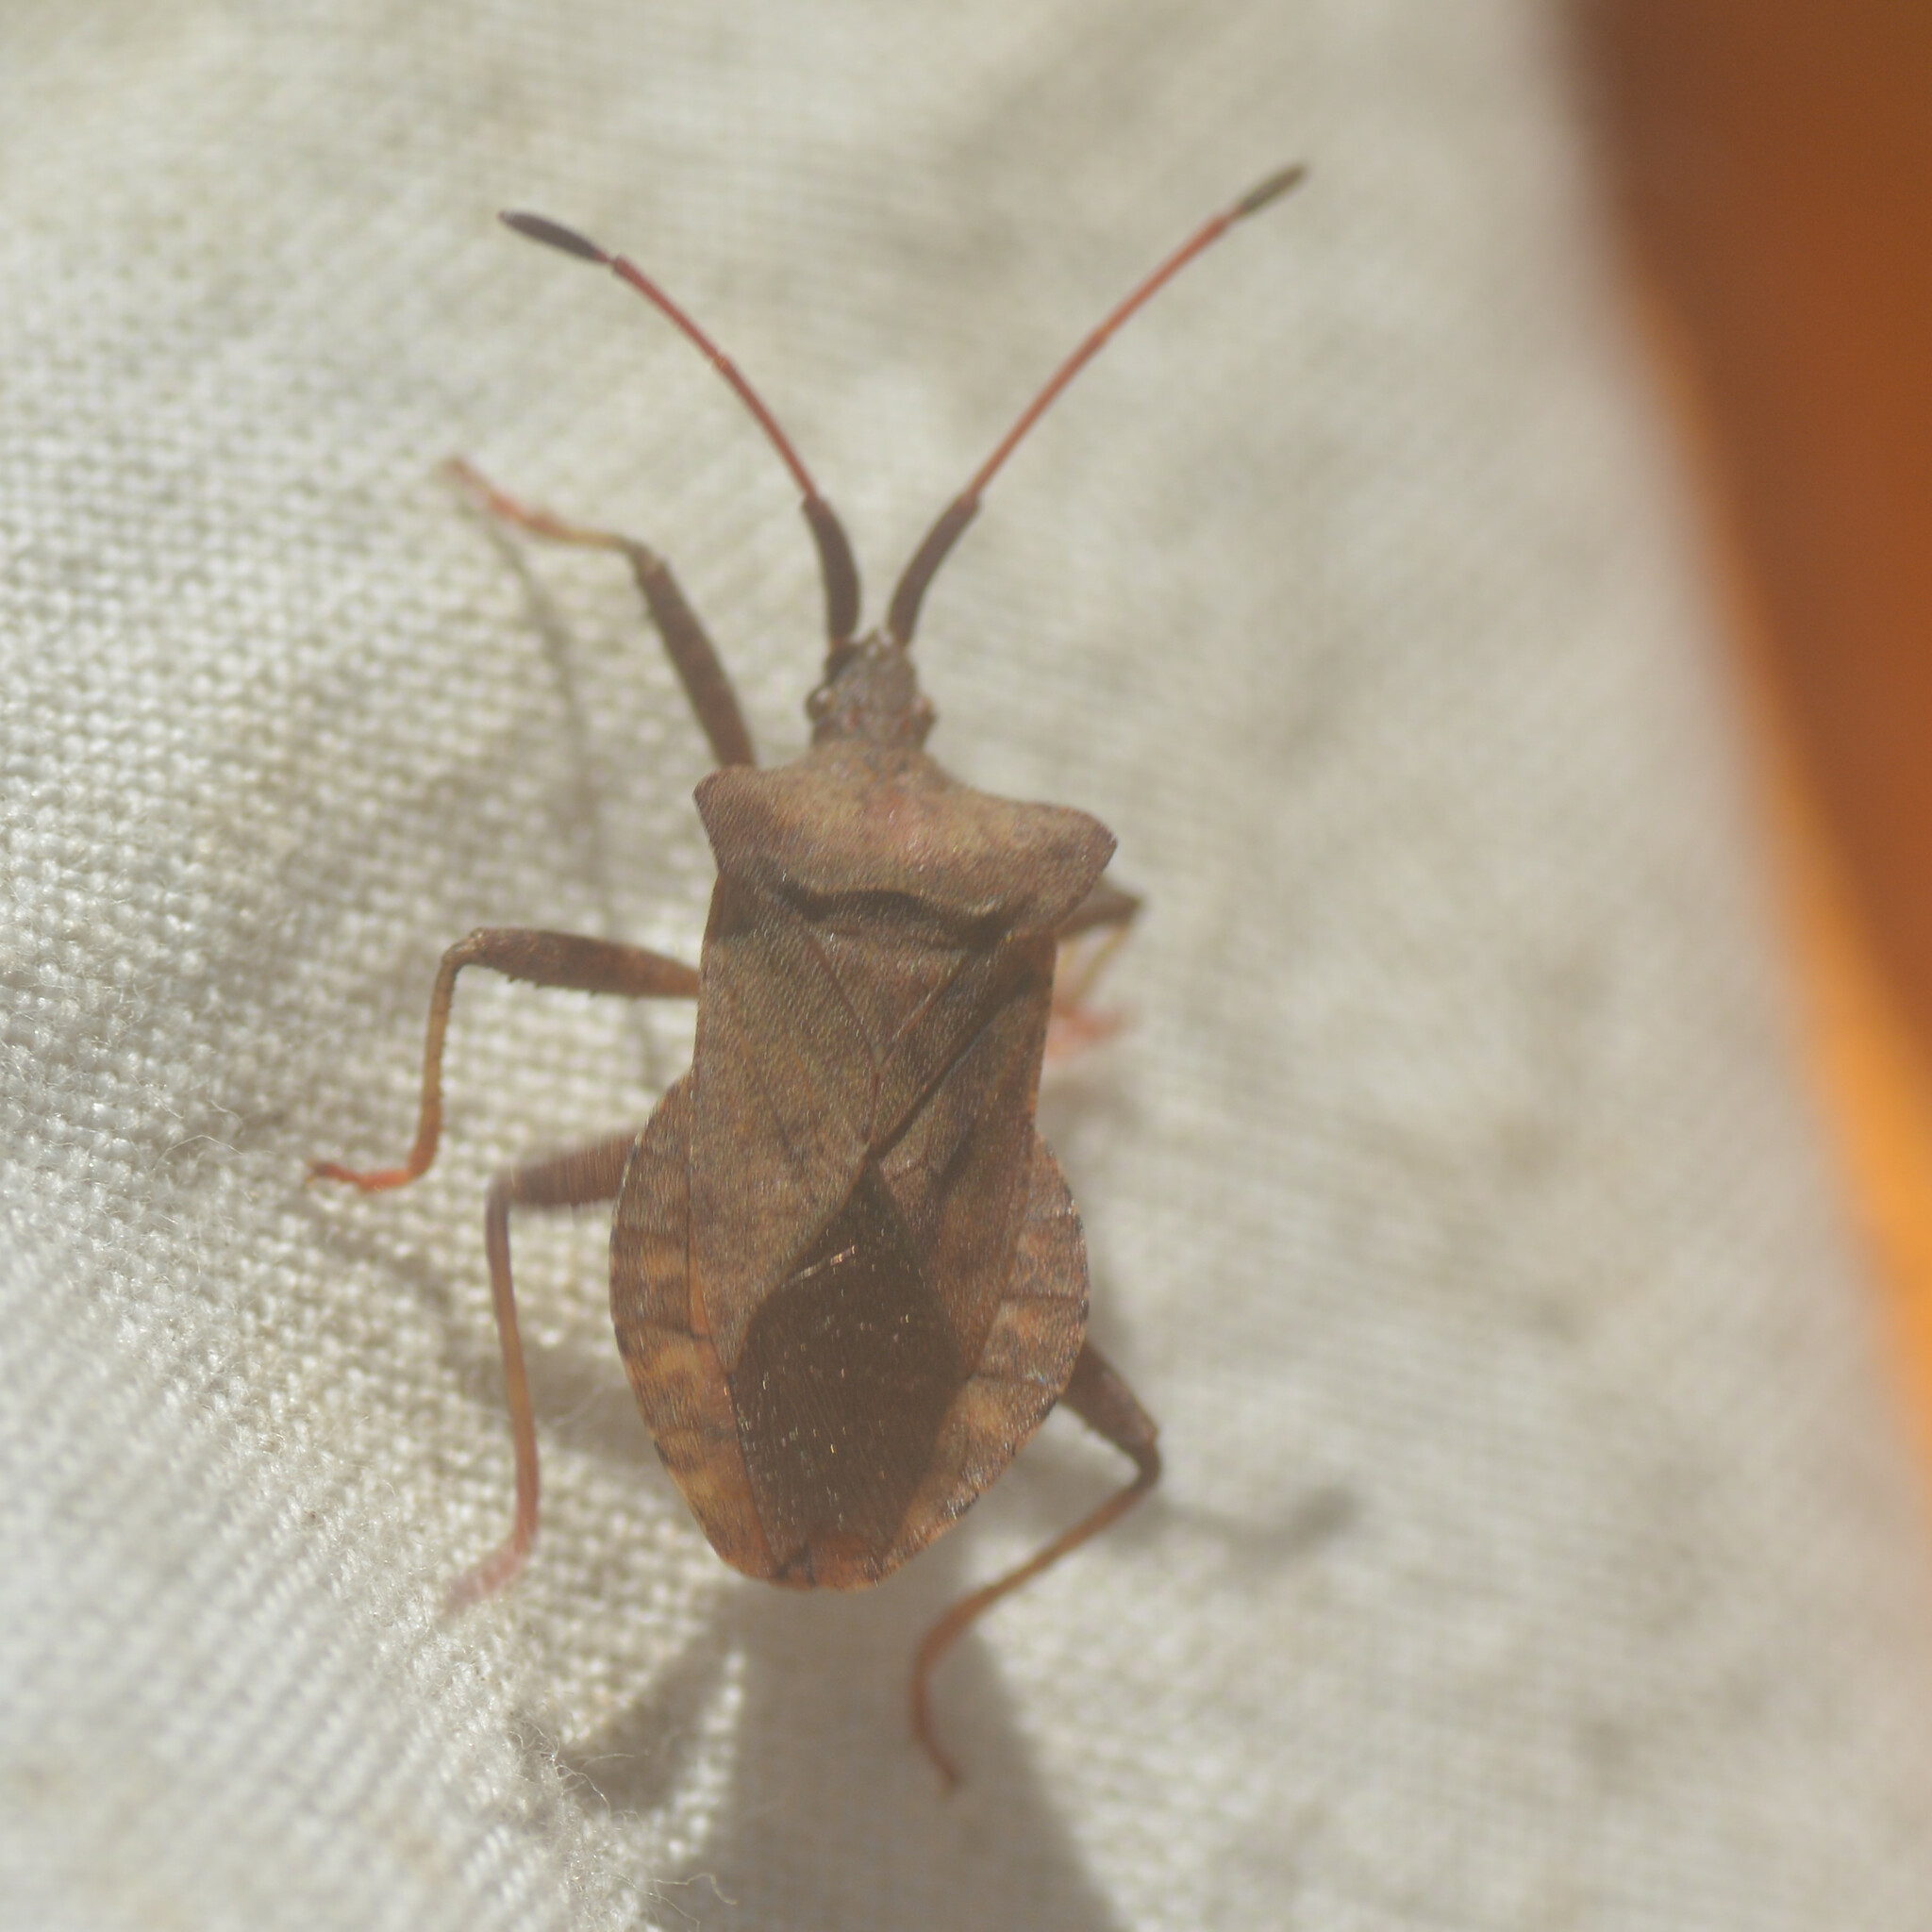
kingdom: Animalia
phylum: Arthropoda
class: Insecta
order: Hemiptera
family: Coreidae
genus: Coreus
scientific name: Coreus marginatus
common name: Dock bug
